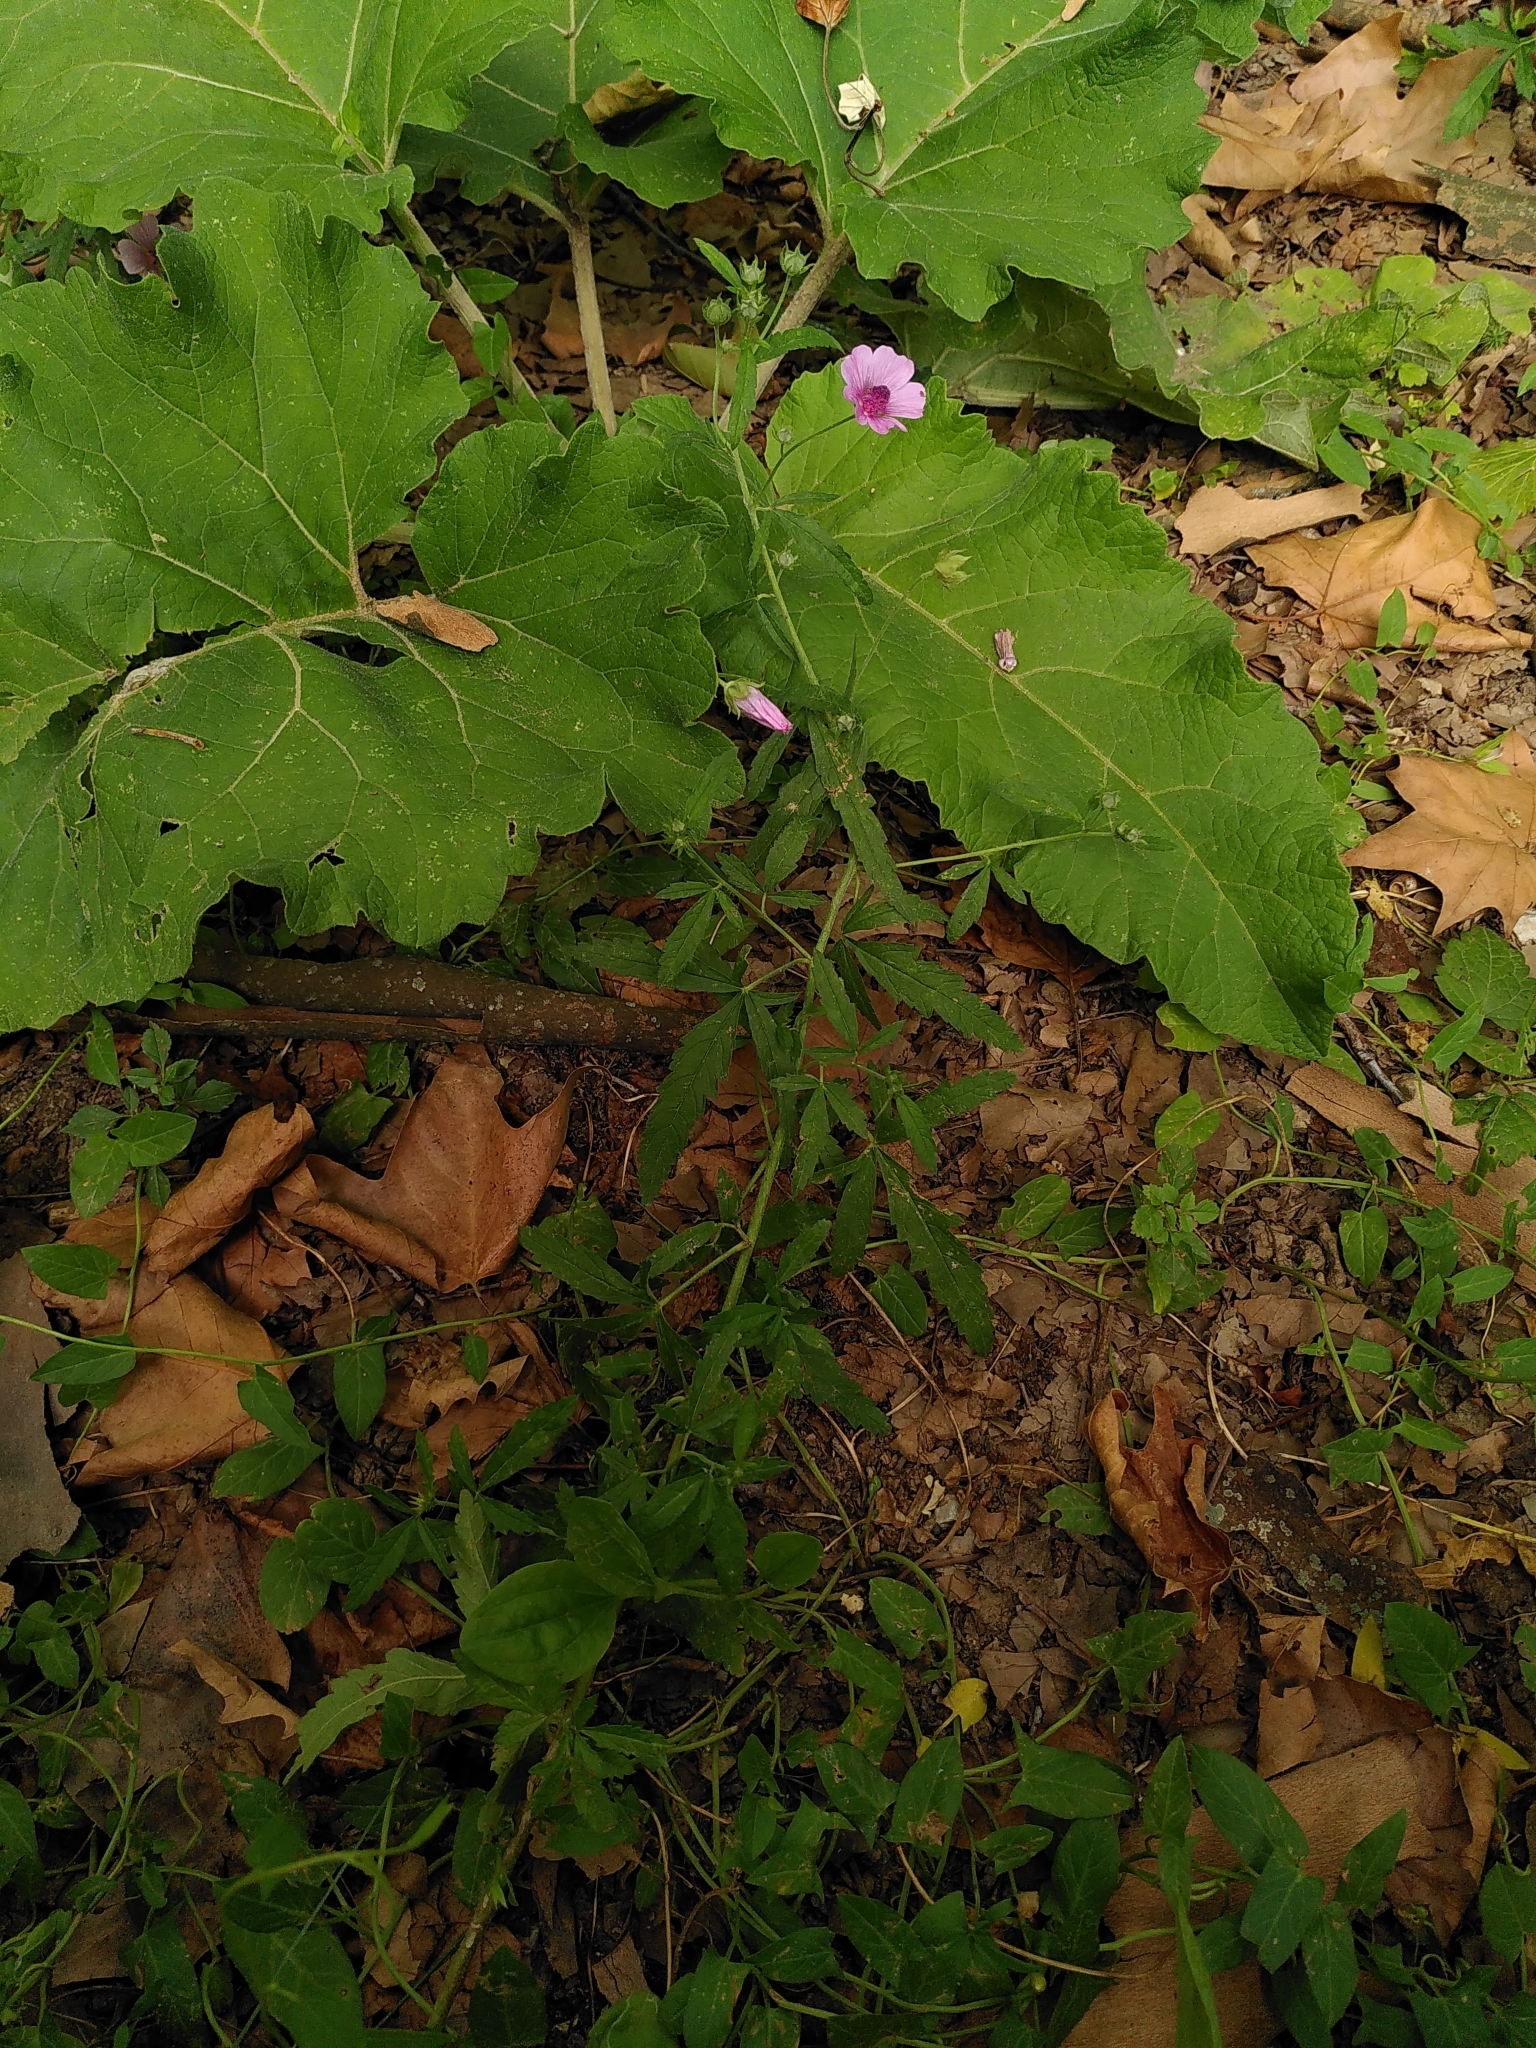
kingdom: Plantae
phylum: Tracheophyta
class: Magnoliopsida
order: Malvales
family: Malvaceae
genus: Althaea
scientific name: Althaea cannabina
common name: Palm-leaf marshmallow
